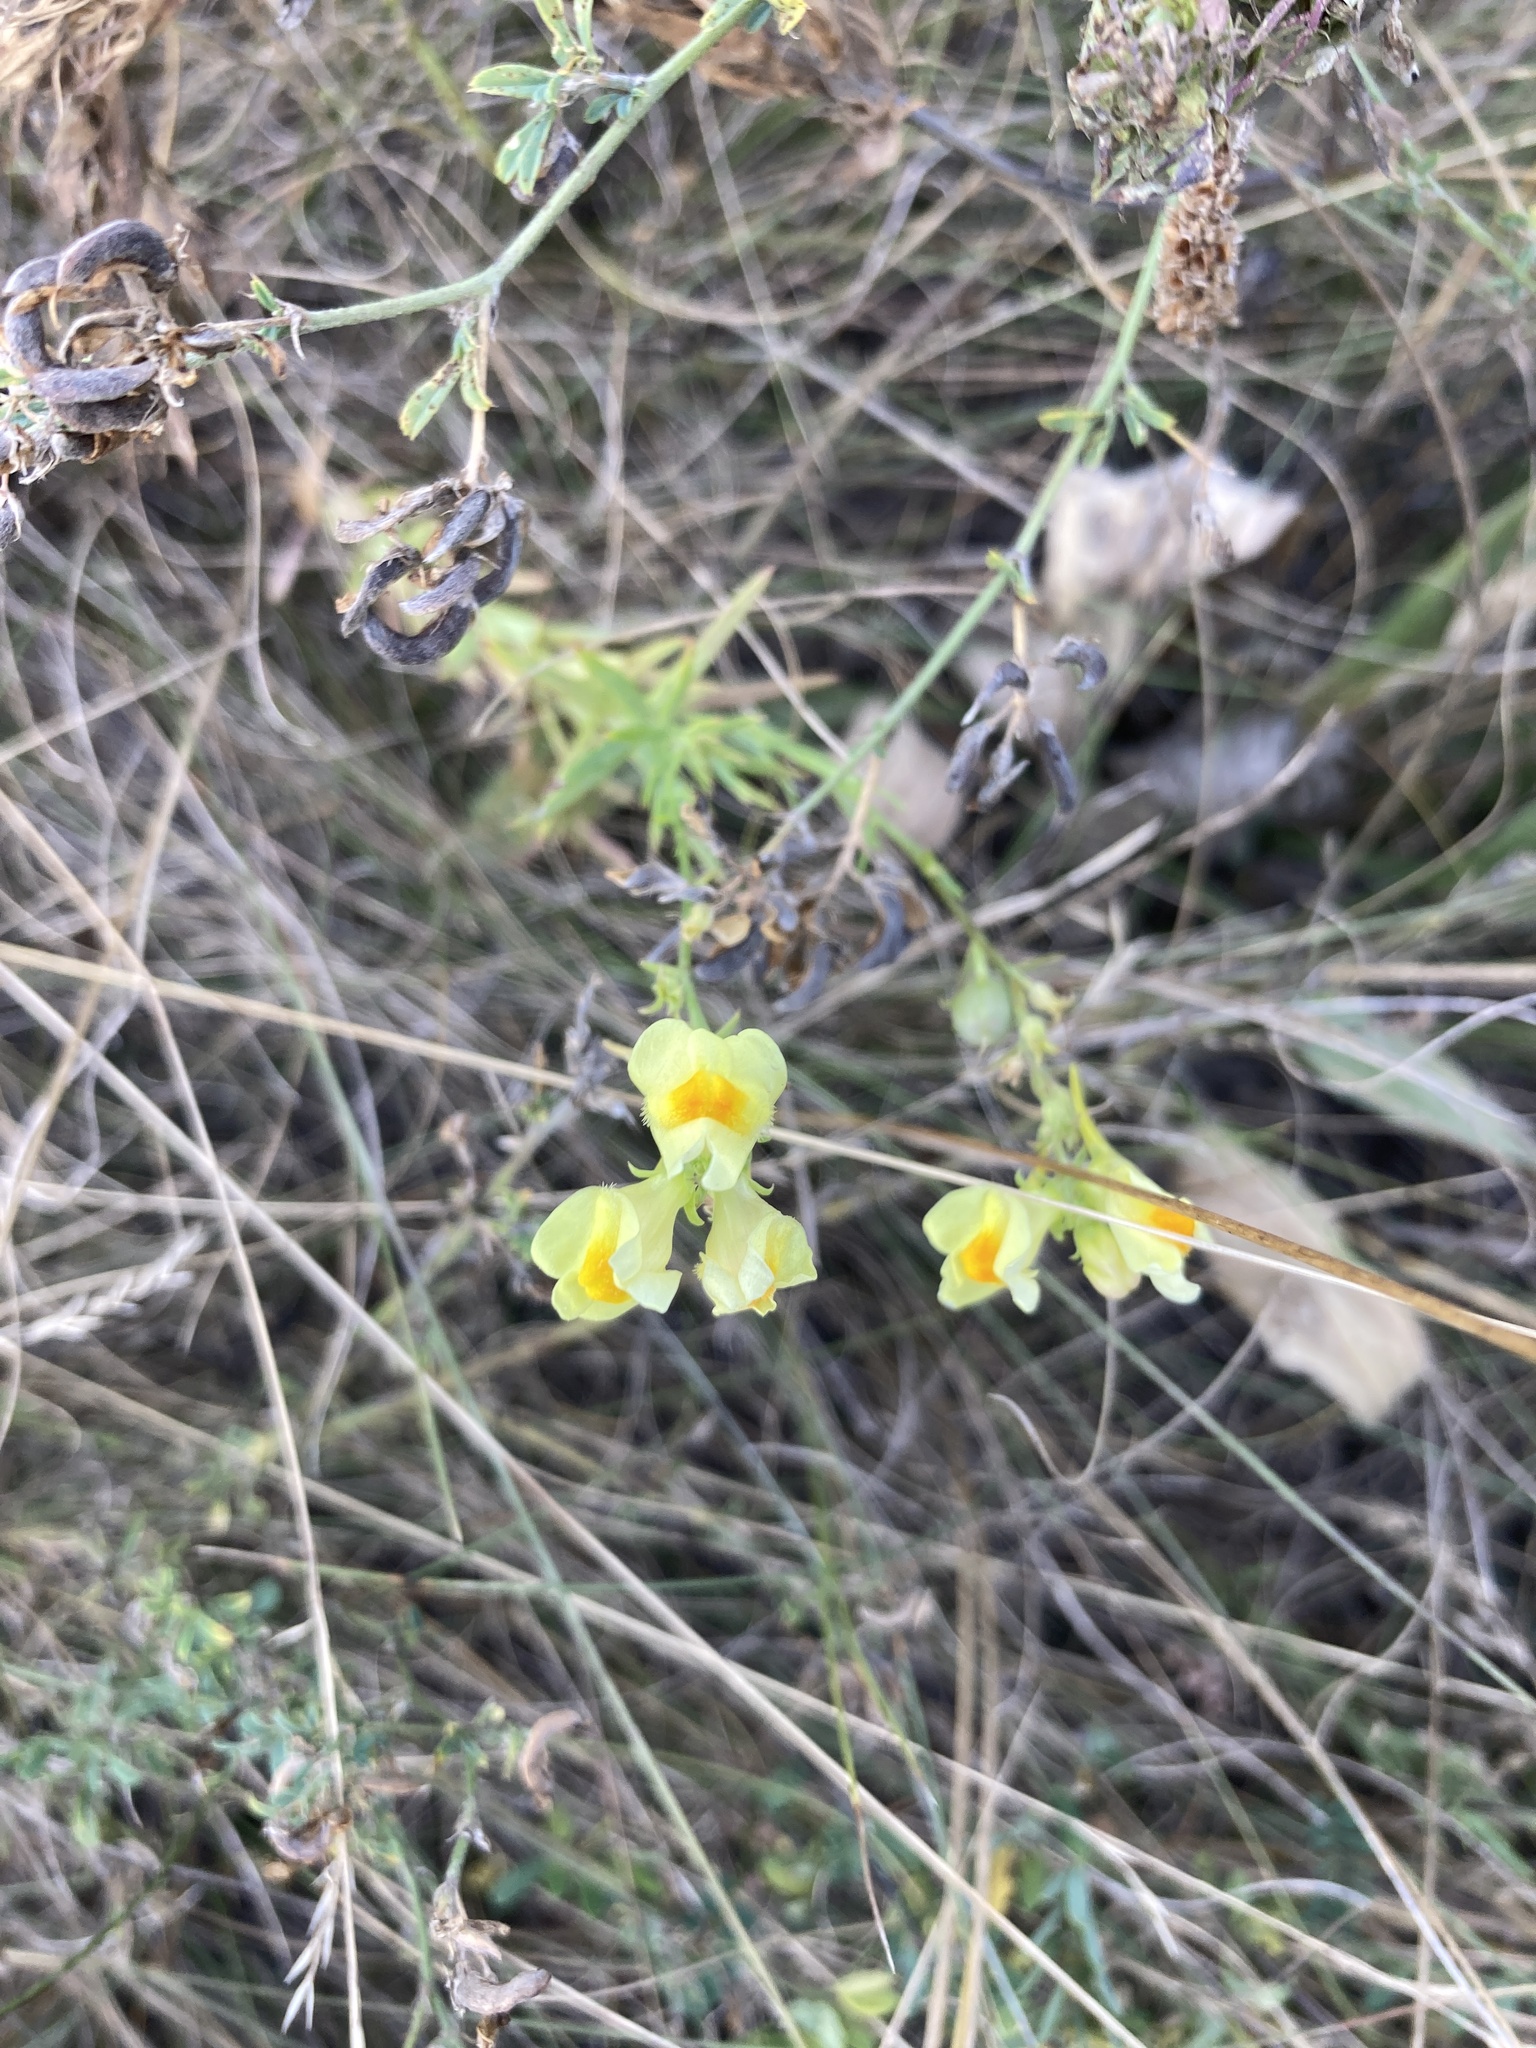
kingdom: Plantae
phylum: Tracheophyta
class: Magnoliopsida
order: Lamiales
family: Plantaginaceae
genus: Linaria
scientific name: Linaria vulgaris
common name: Butter and eggs
